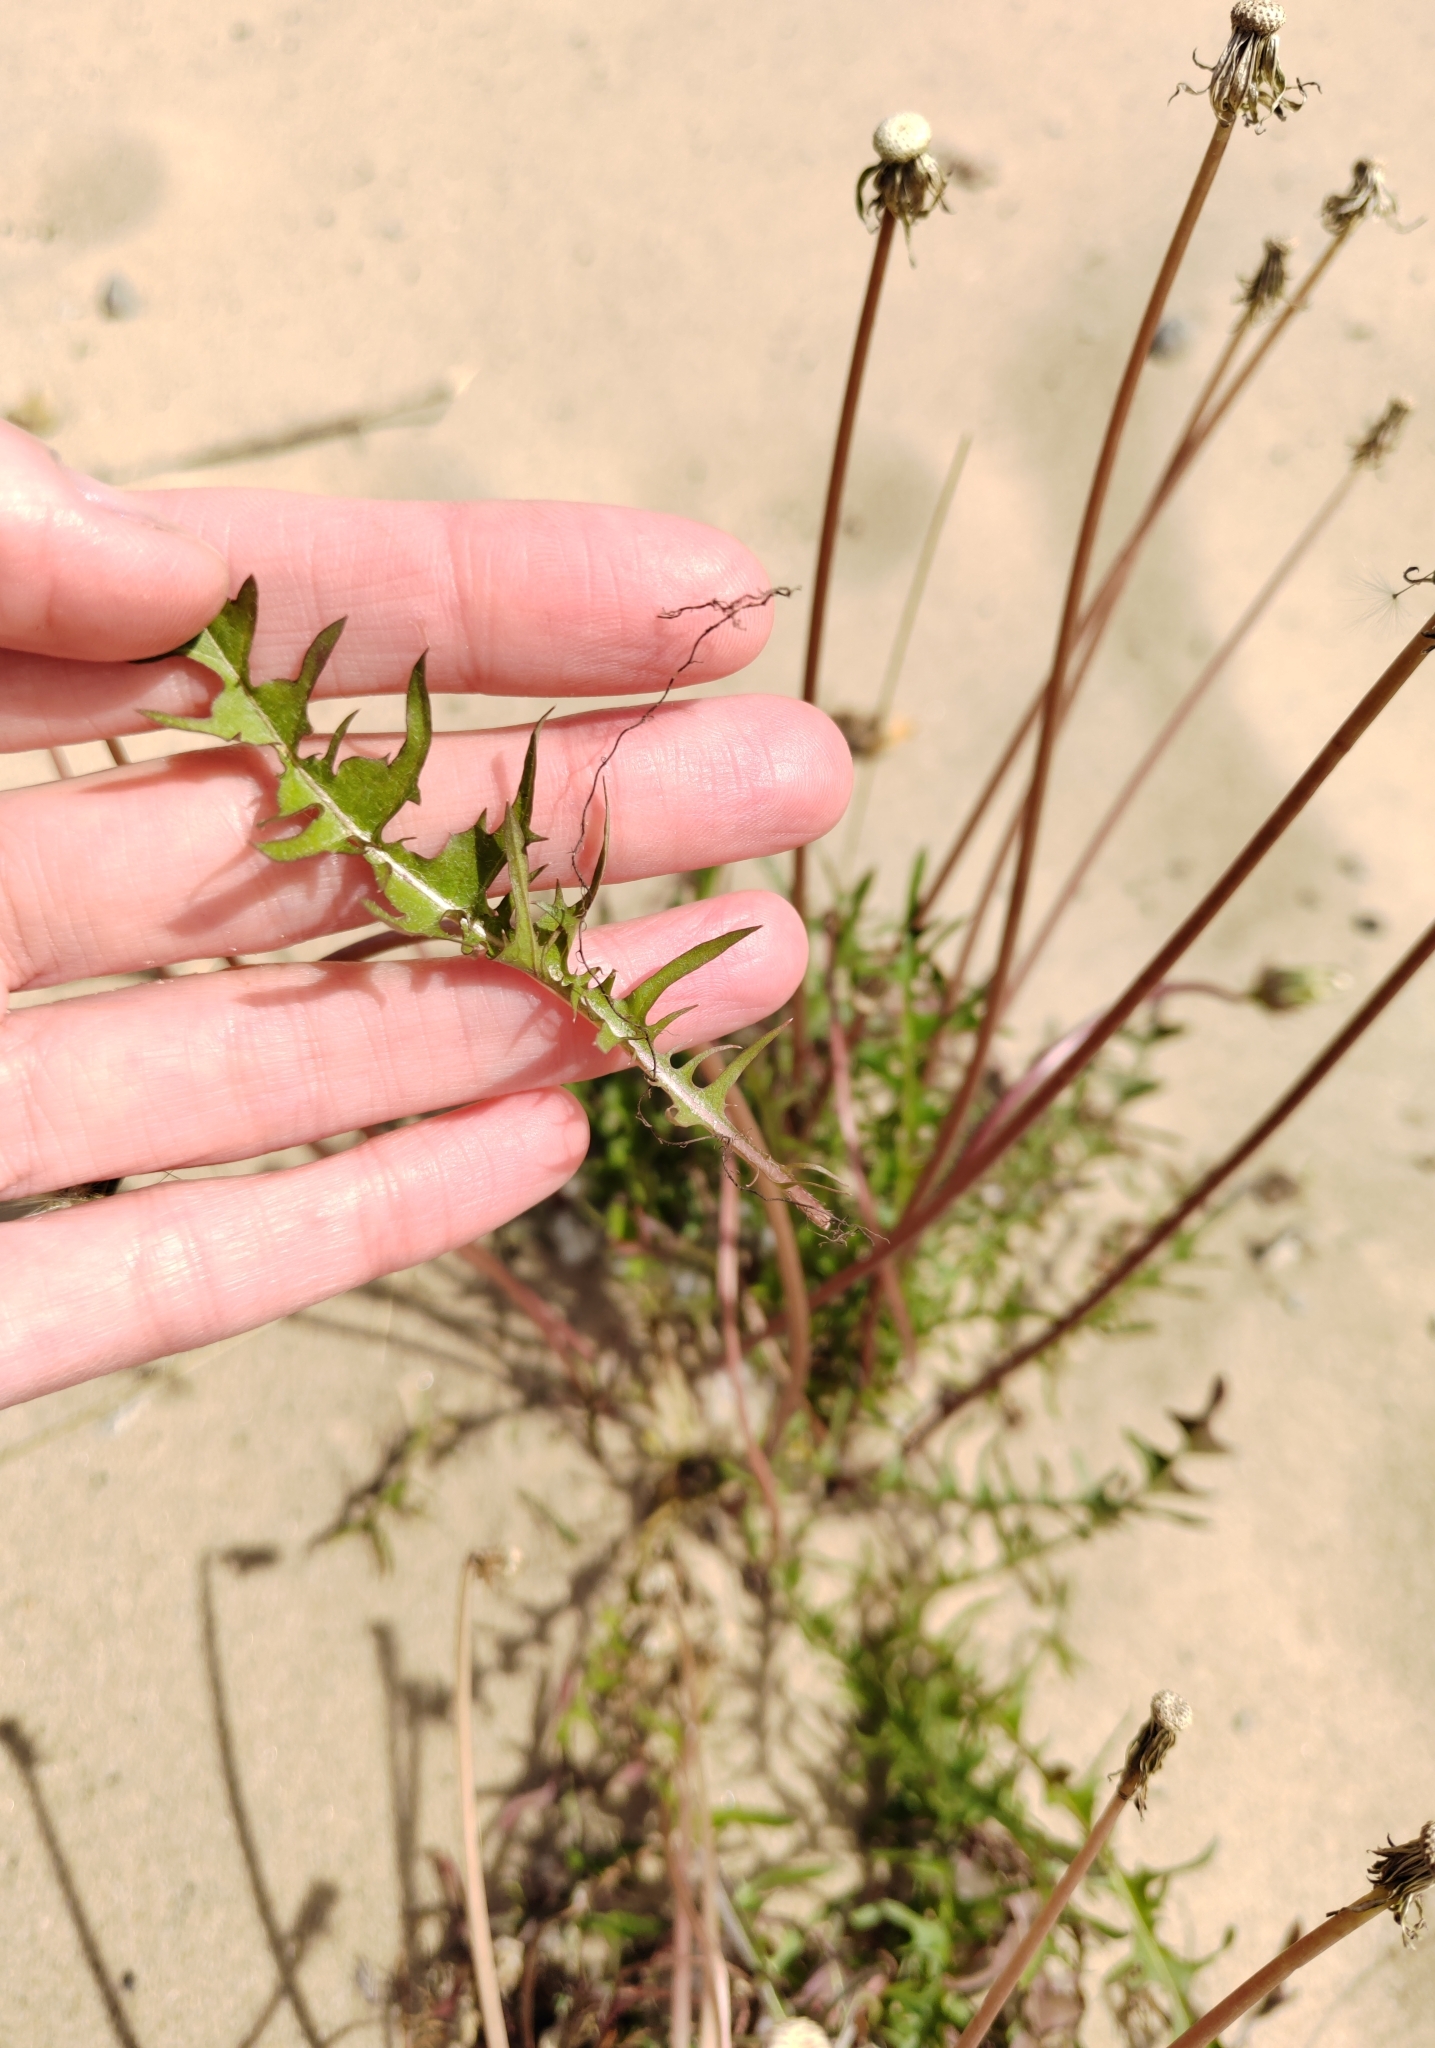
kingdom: Plantae
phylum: Tracheophyta
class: Magnoliopsida
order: Asterales
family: Asteraceae
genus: Taraxacum
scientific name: Taraxacum scariosum
